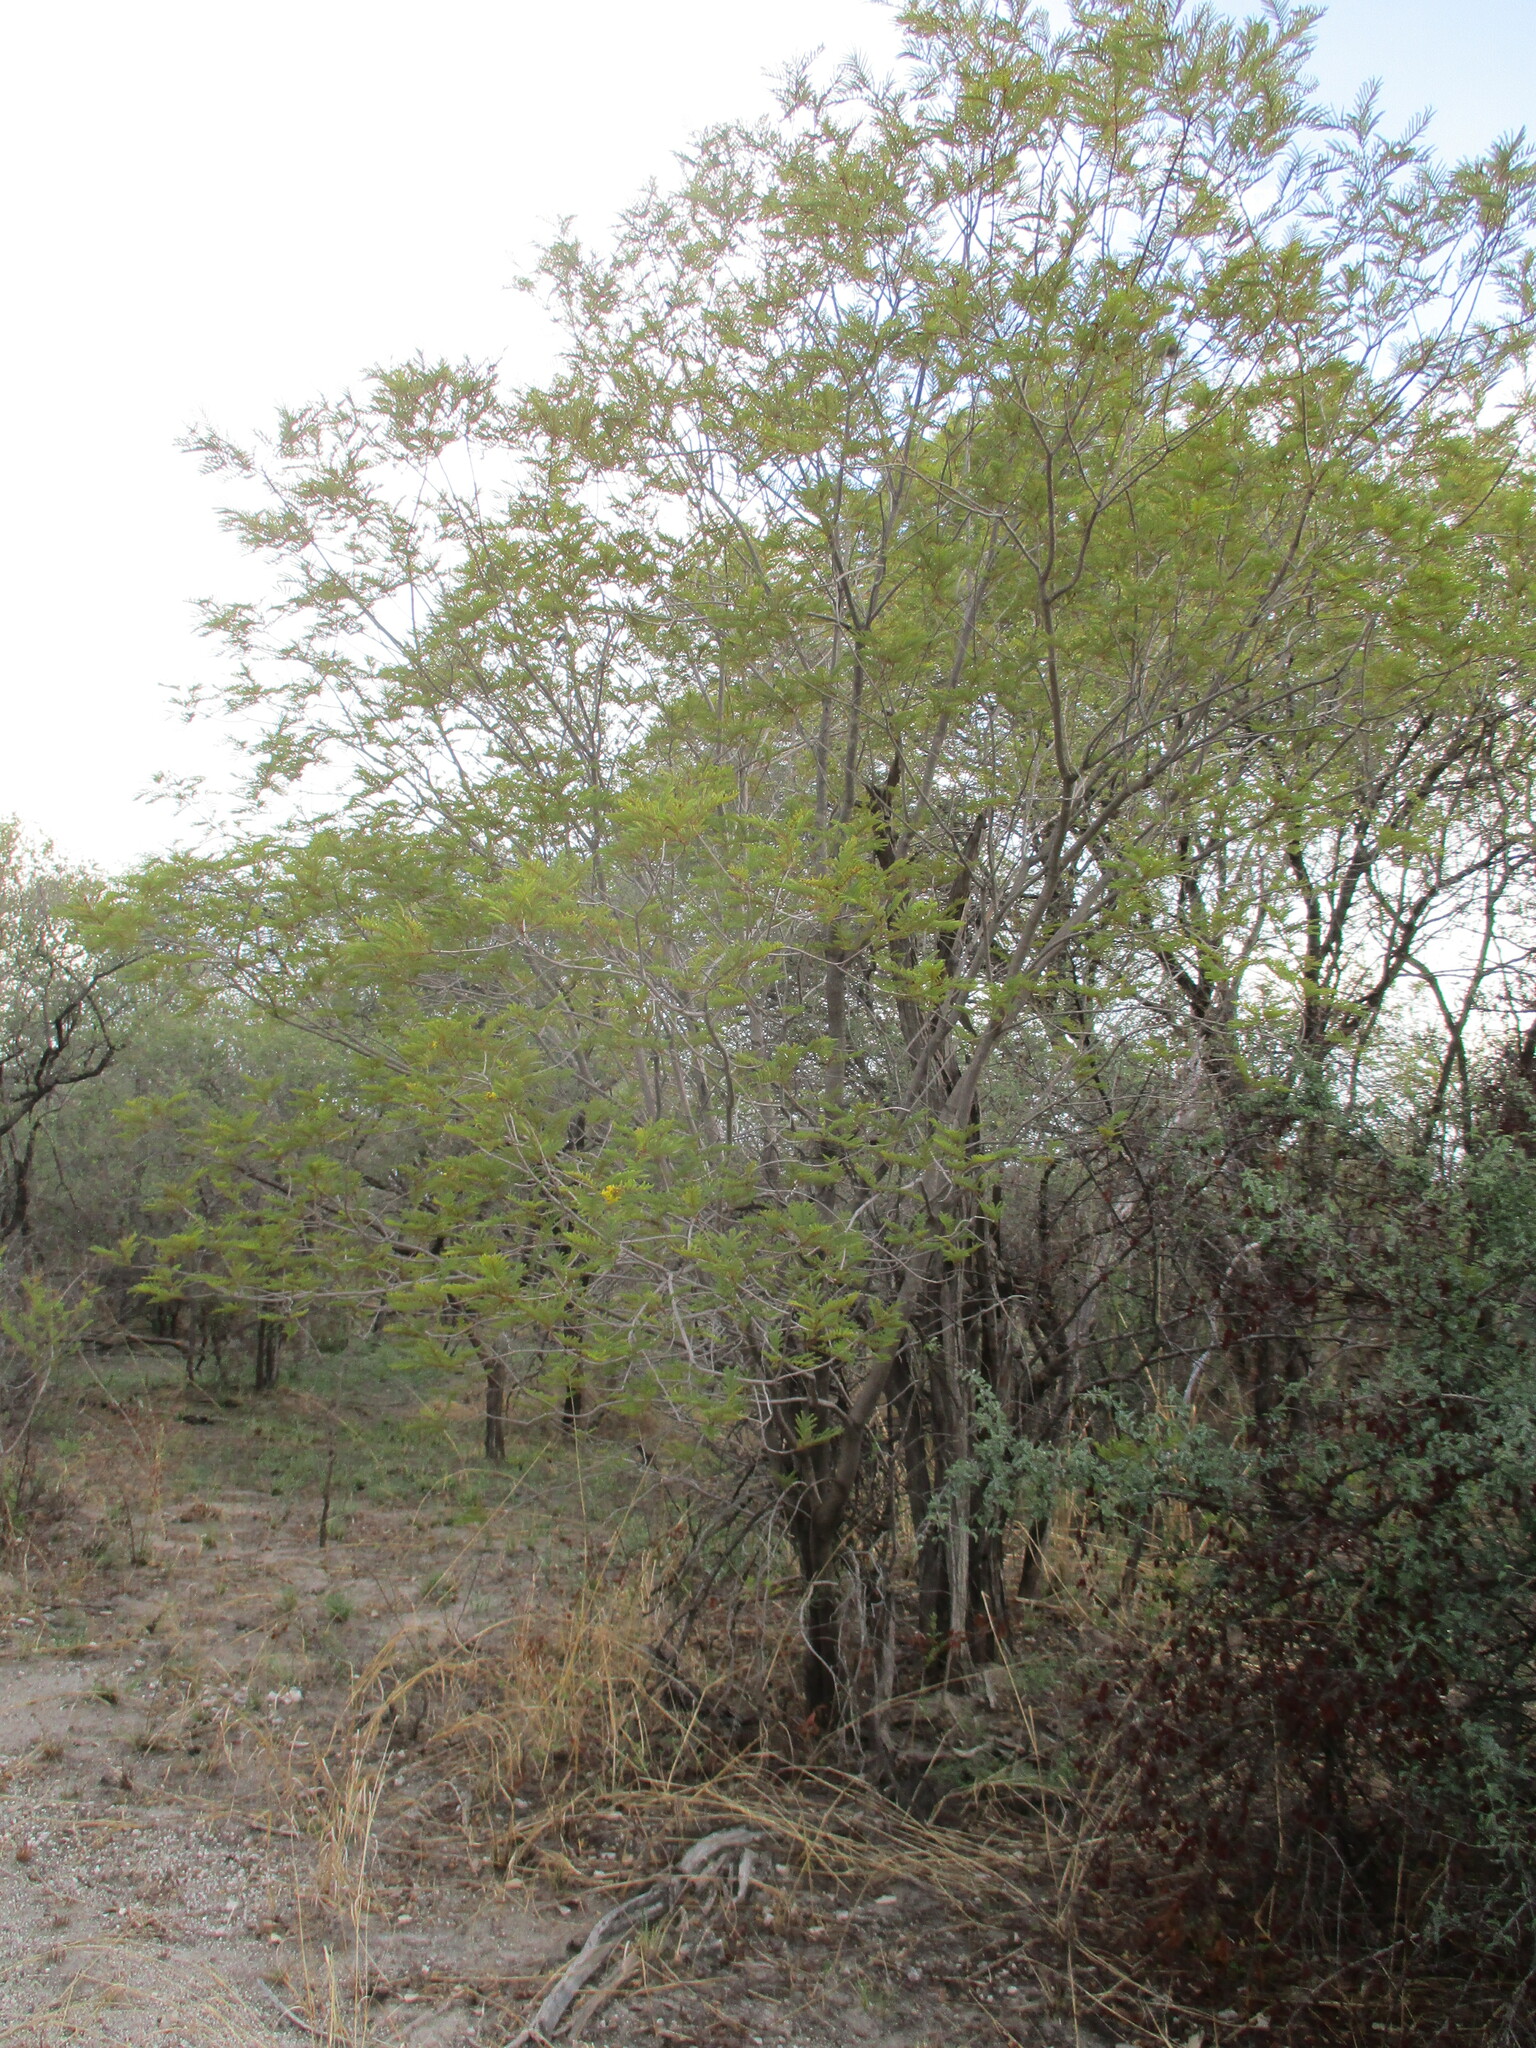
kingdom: Plantae
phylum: Tracheophyta
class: Magnoliopsida
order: Fabales
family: Fabaceae
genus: Peltophorum
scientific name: Peltophorum africanum
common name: African black wattle
